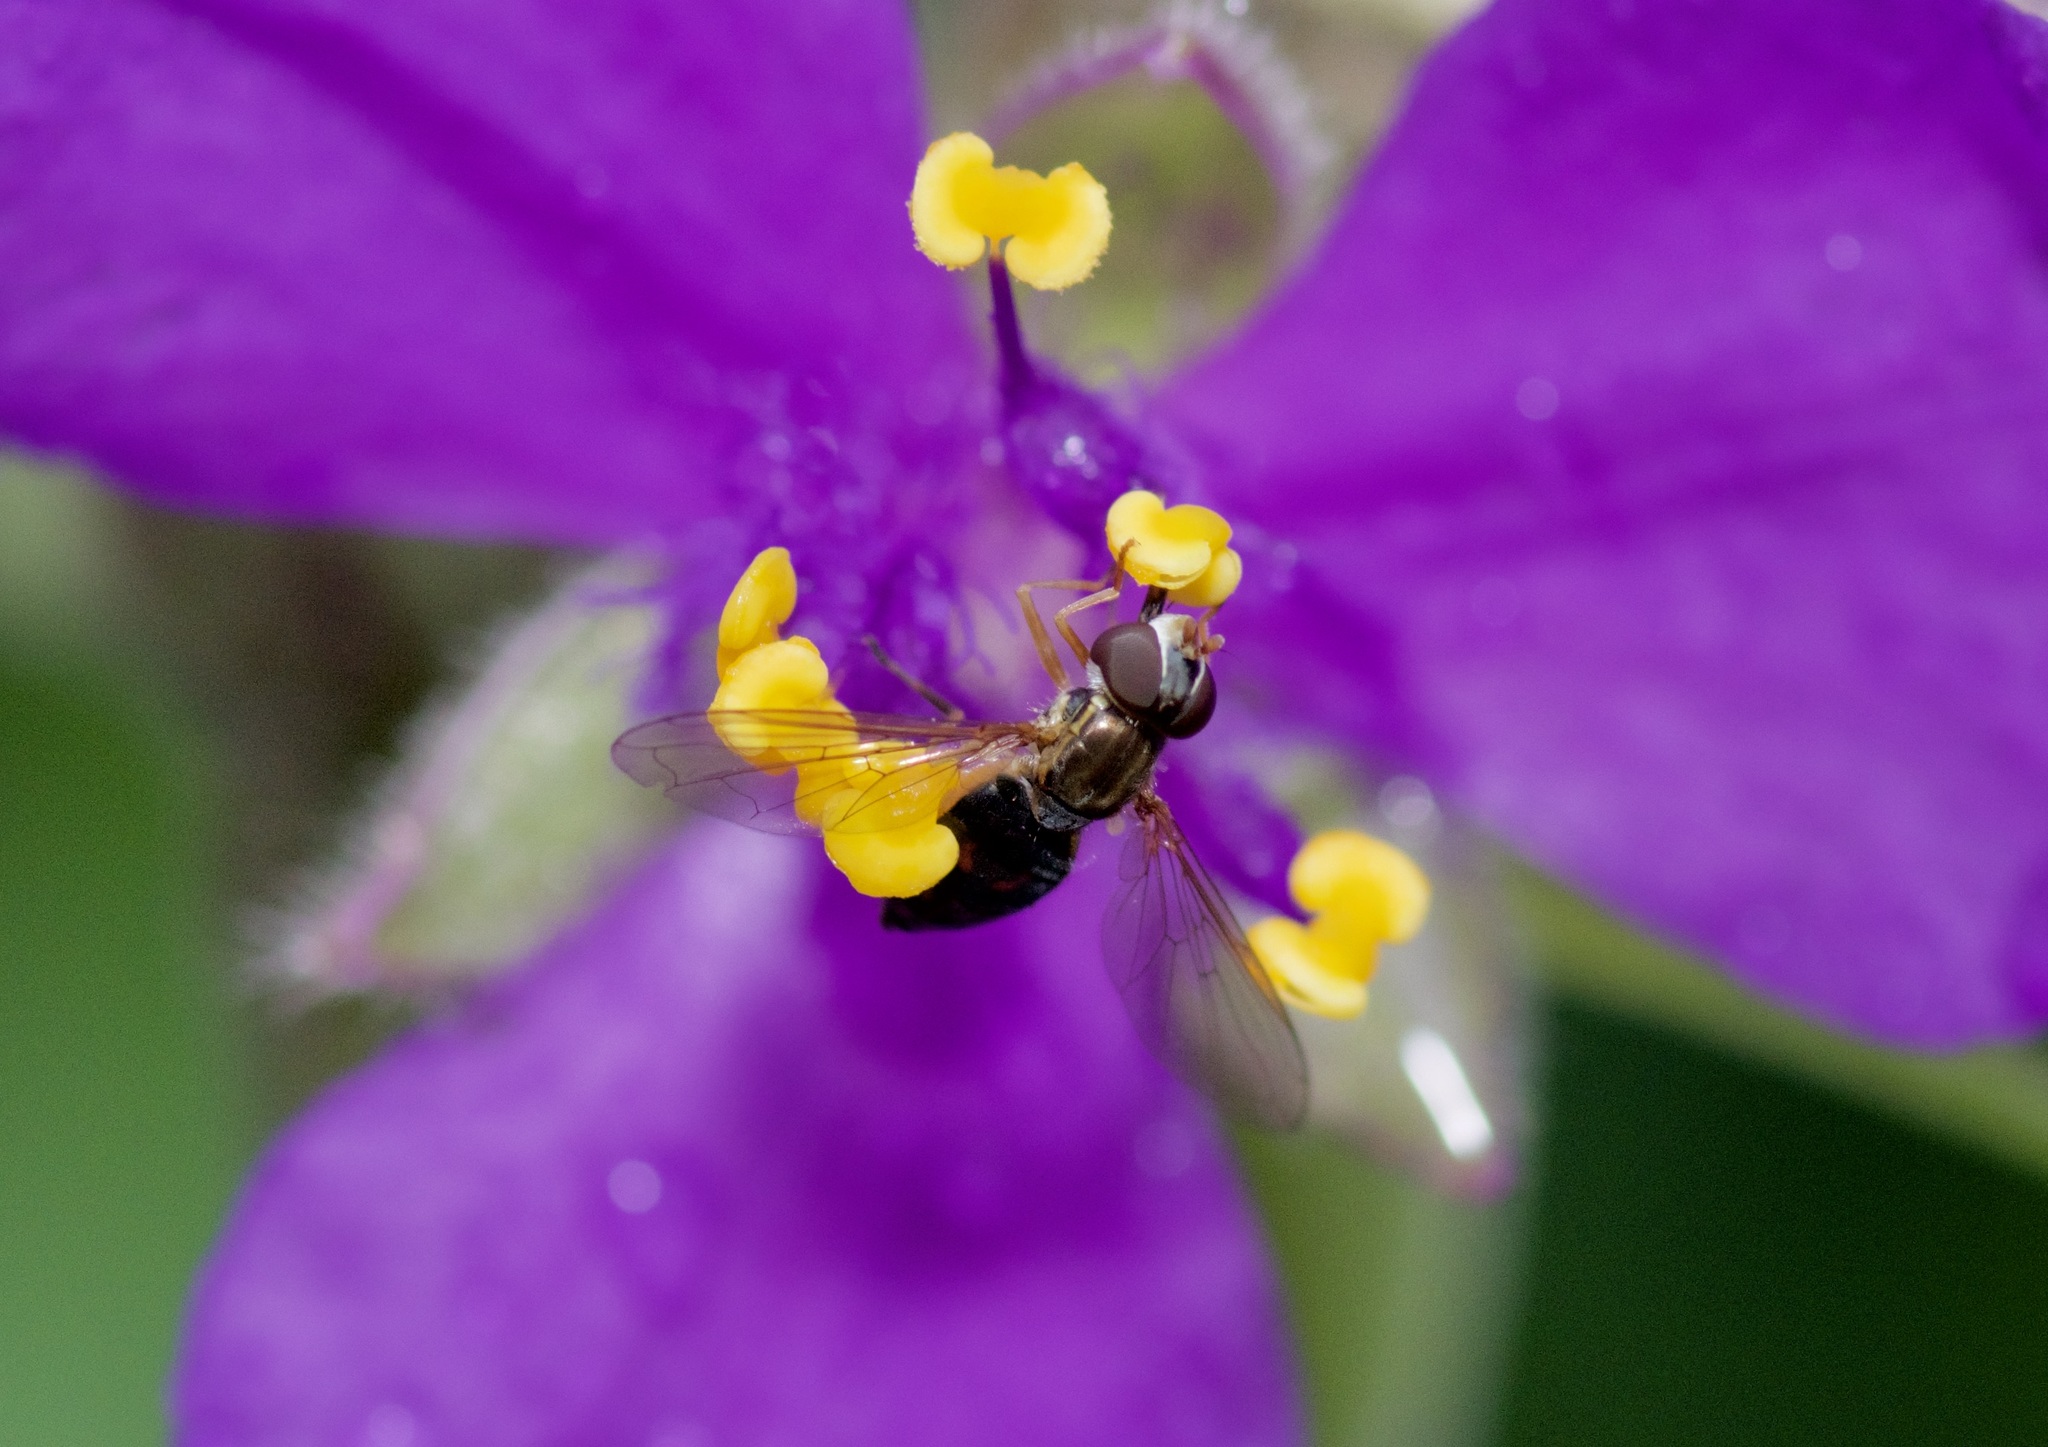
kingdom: Animalia
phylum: Arthropoda
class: Insecta
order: Diptera
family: Syrphidae
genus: Toxomerus
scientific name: Toxomerus marginatus
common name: Syrphid fly
